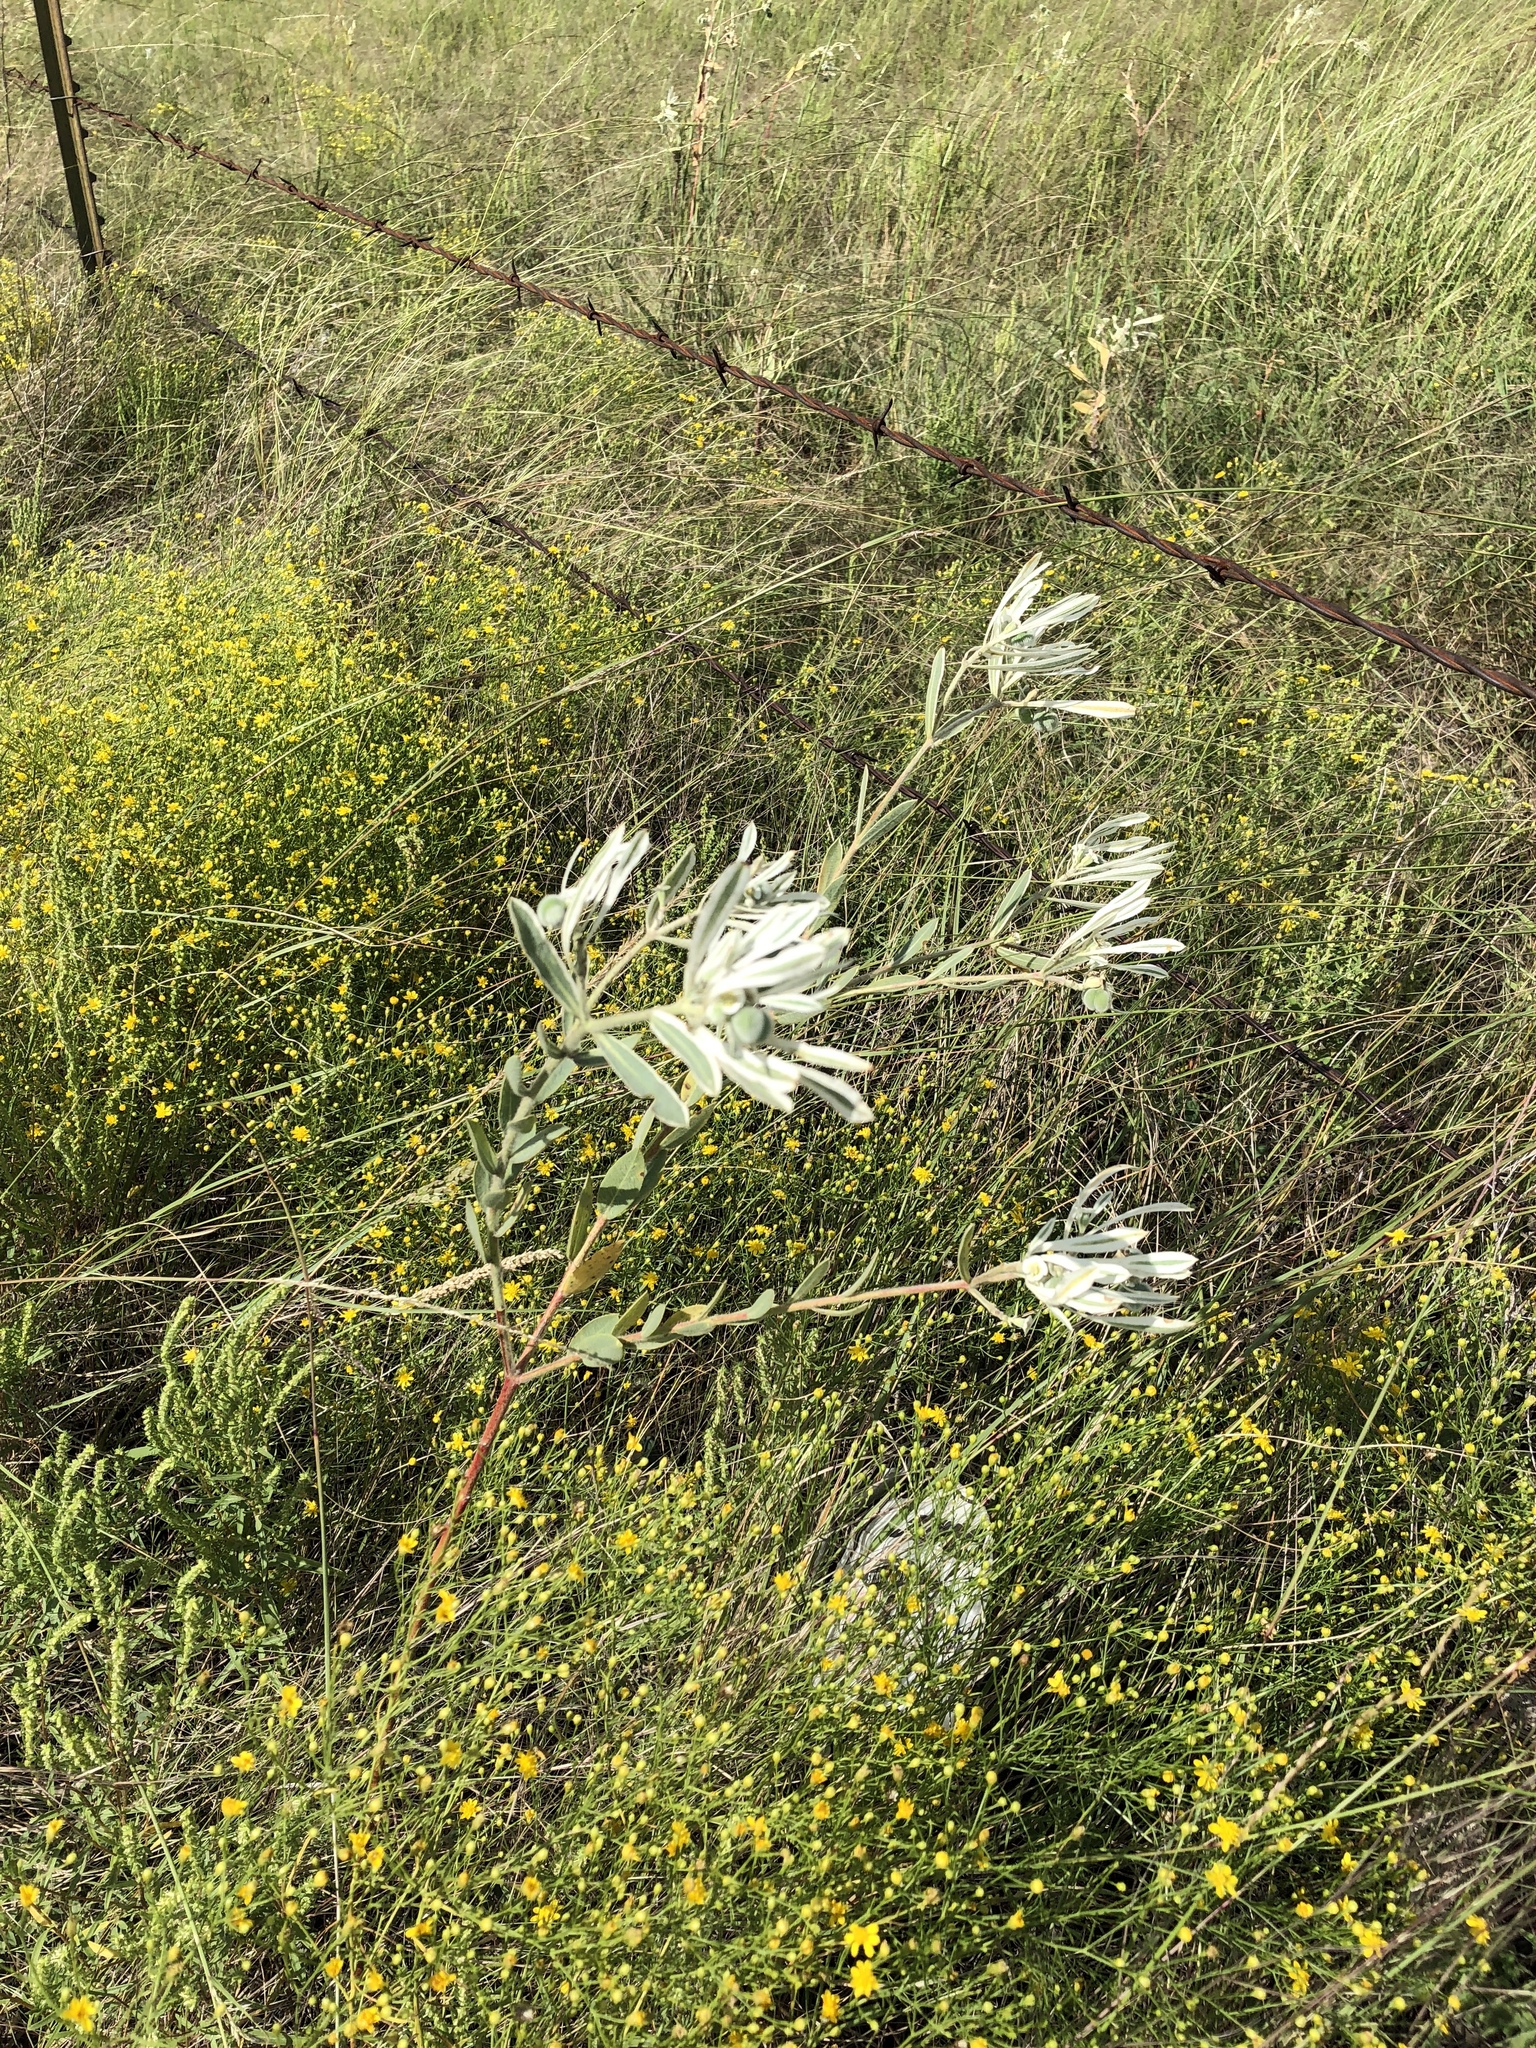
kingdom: Plantae
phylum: Tracheophyta
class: Magnoliopsida
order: Malpighiales
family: Euphorbiaceae
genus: Euphorbia
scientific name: Euphorbia bicolor
